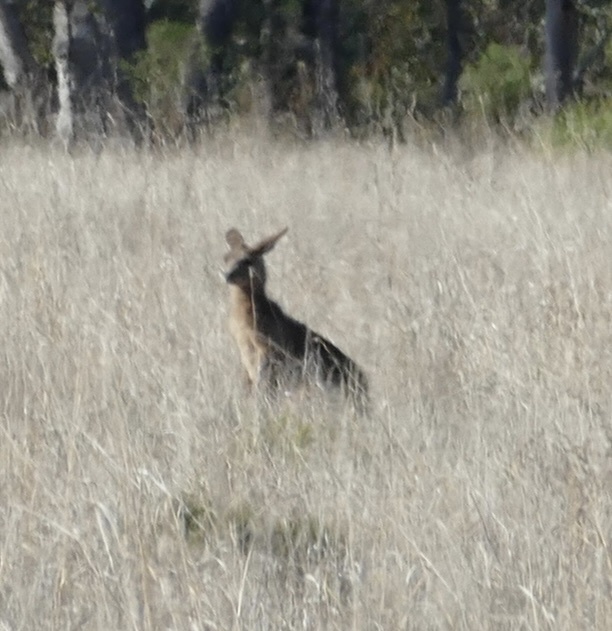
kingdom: Animalia
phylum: Chordata
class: Mammalia
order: Diprotodontia
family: Macropodidae
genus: Macropus
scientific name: Macropus giganteus
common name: Eastern grey kangaroo
